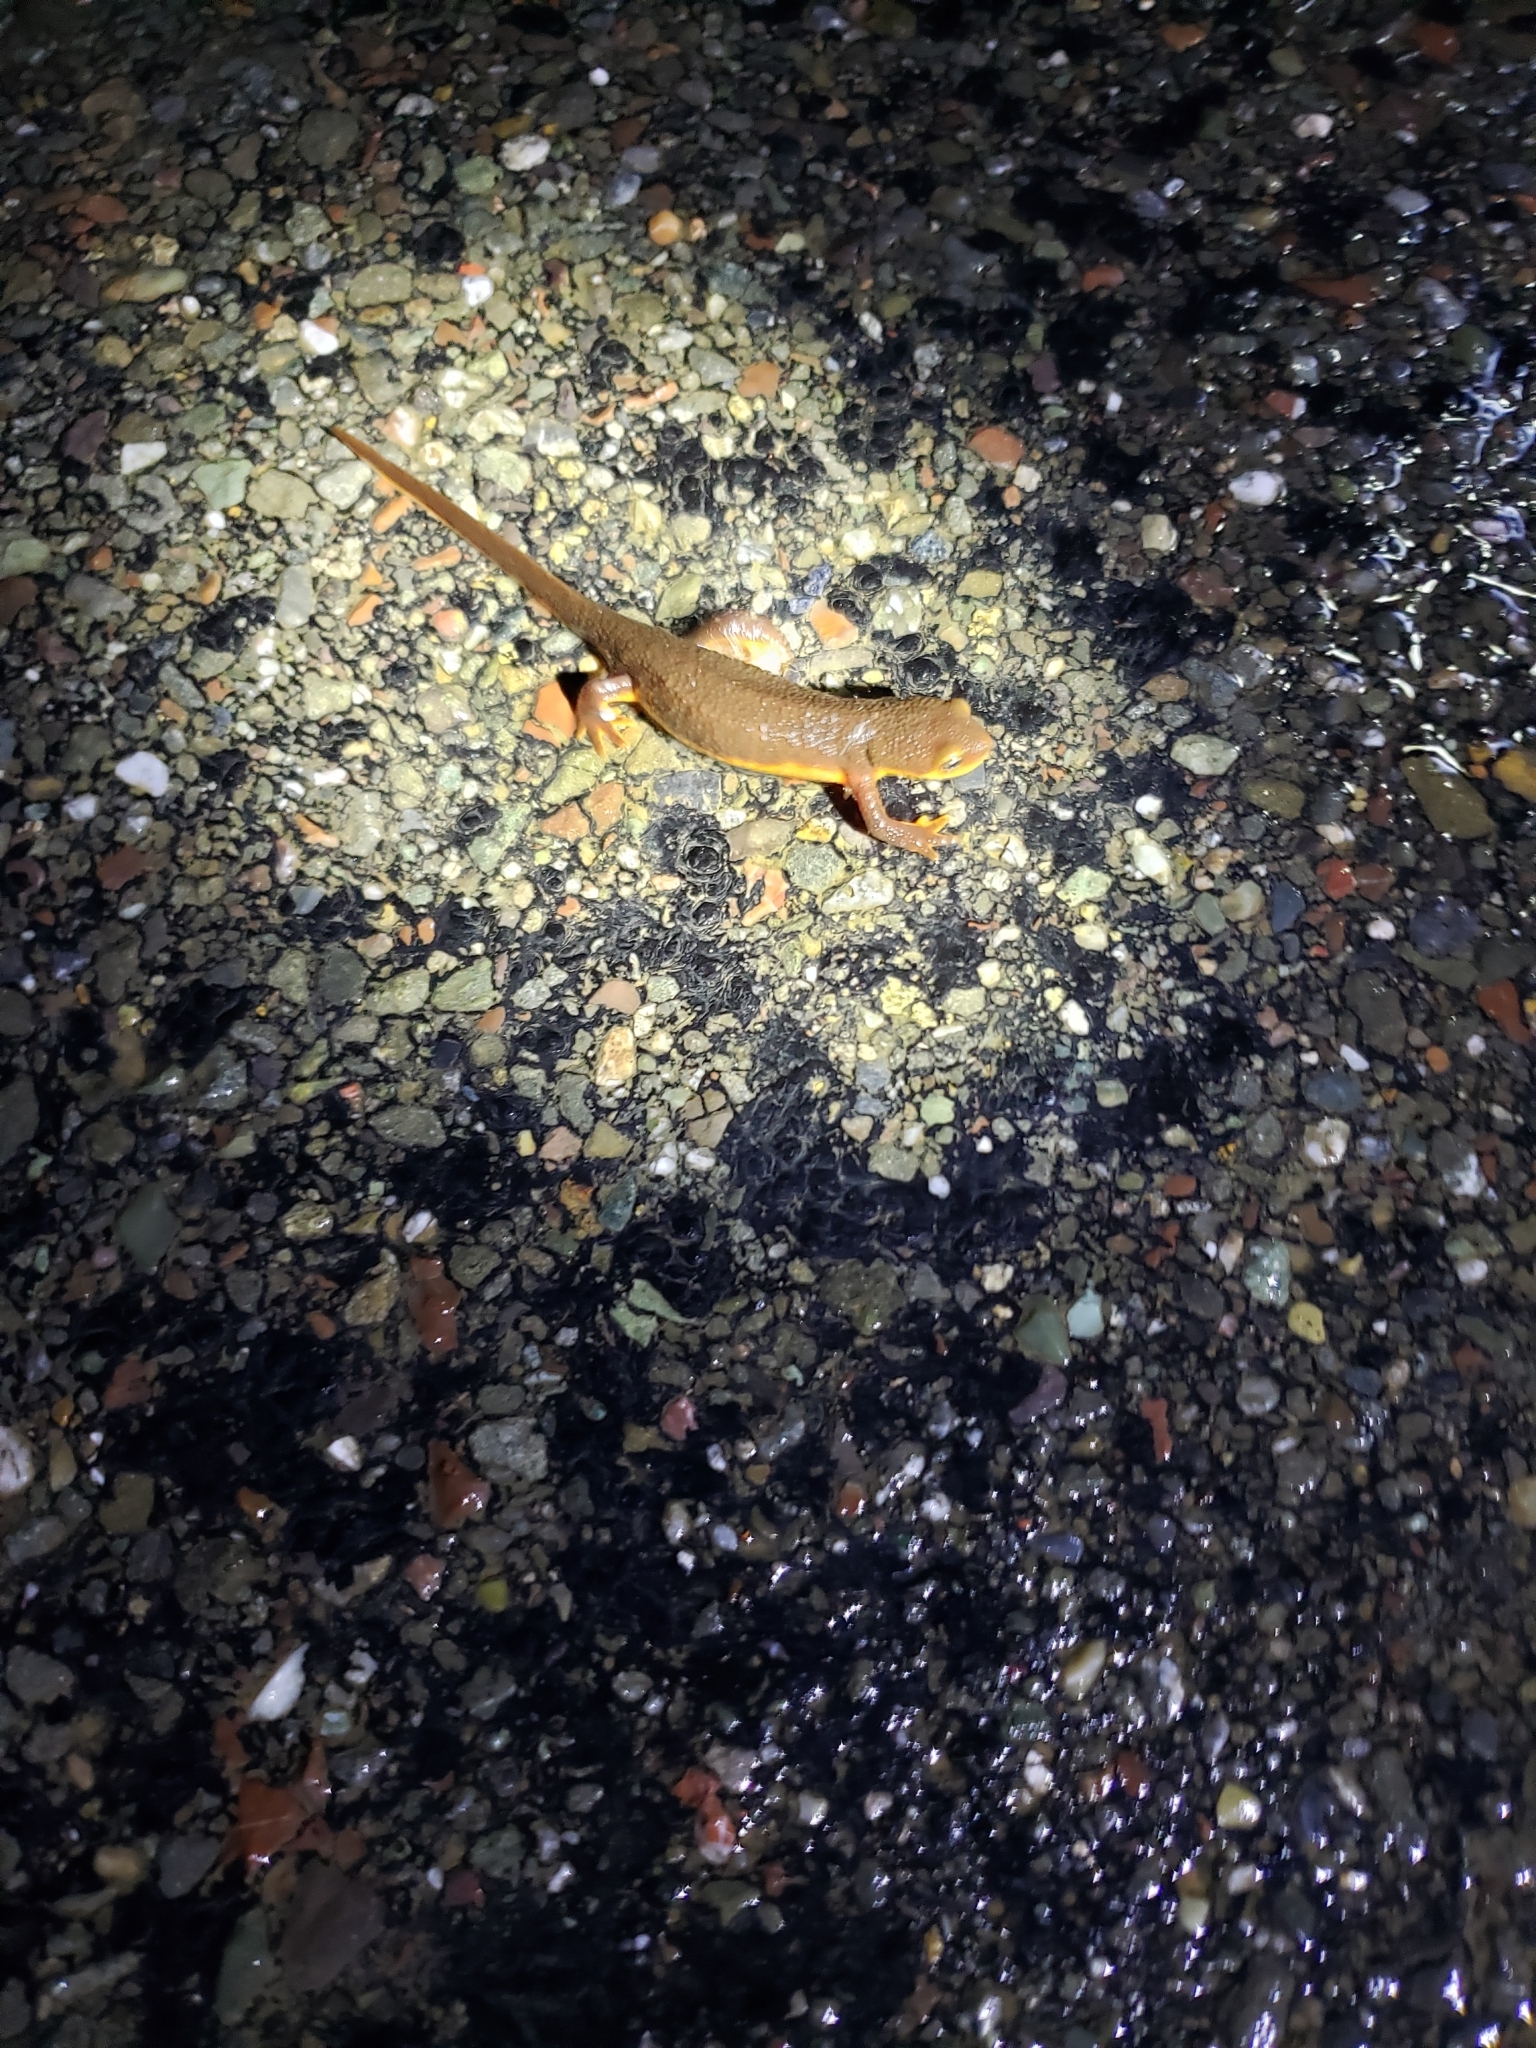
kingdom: Animalia
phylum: Chordata
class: Amphibia
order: Caudata
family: Salamandridae
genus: Taricha
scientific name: Taricha torosa
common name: California newt
